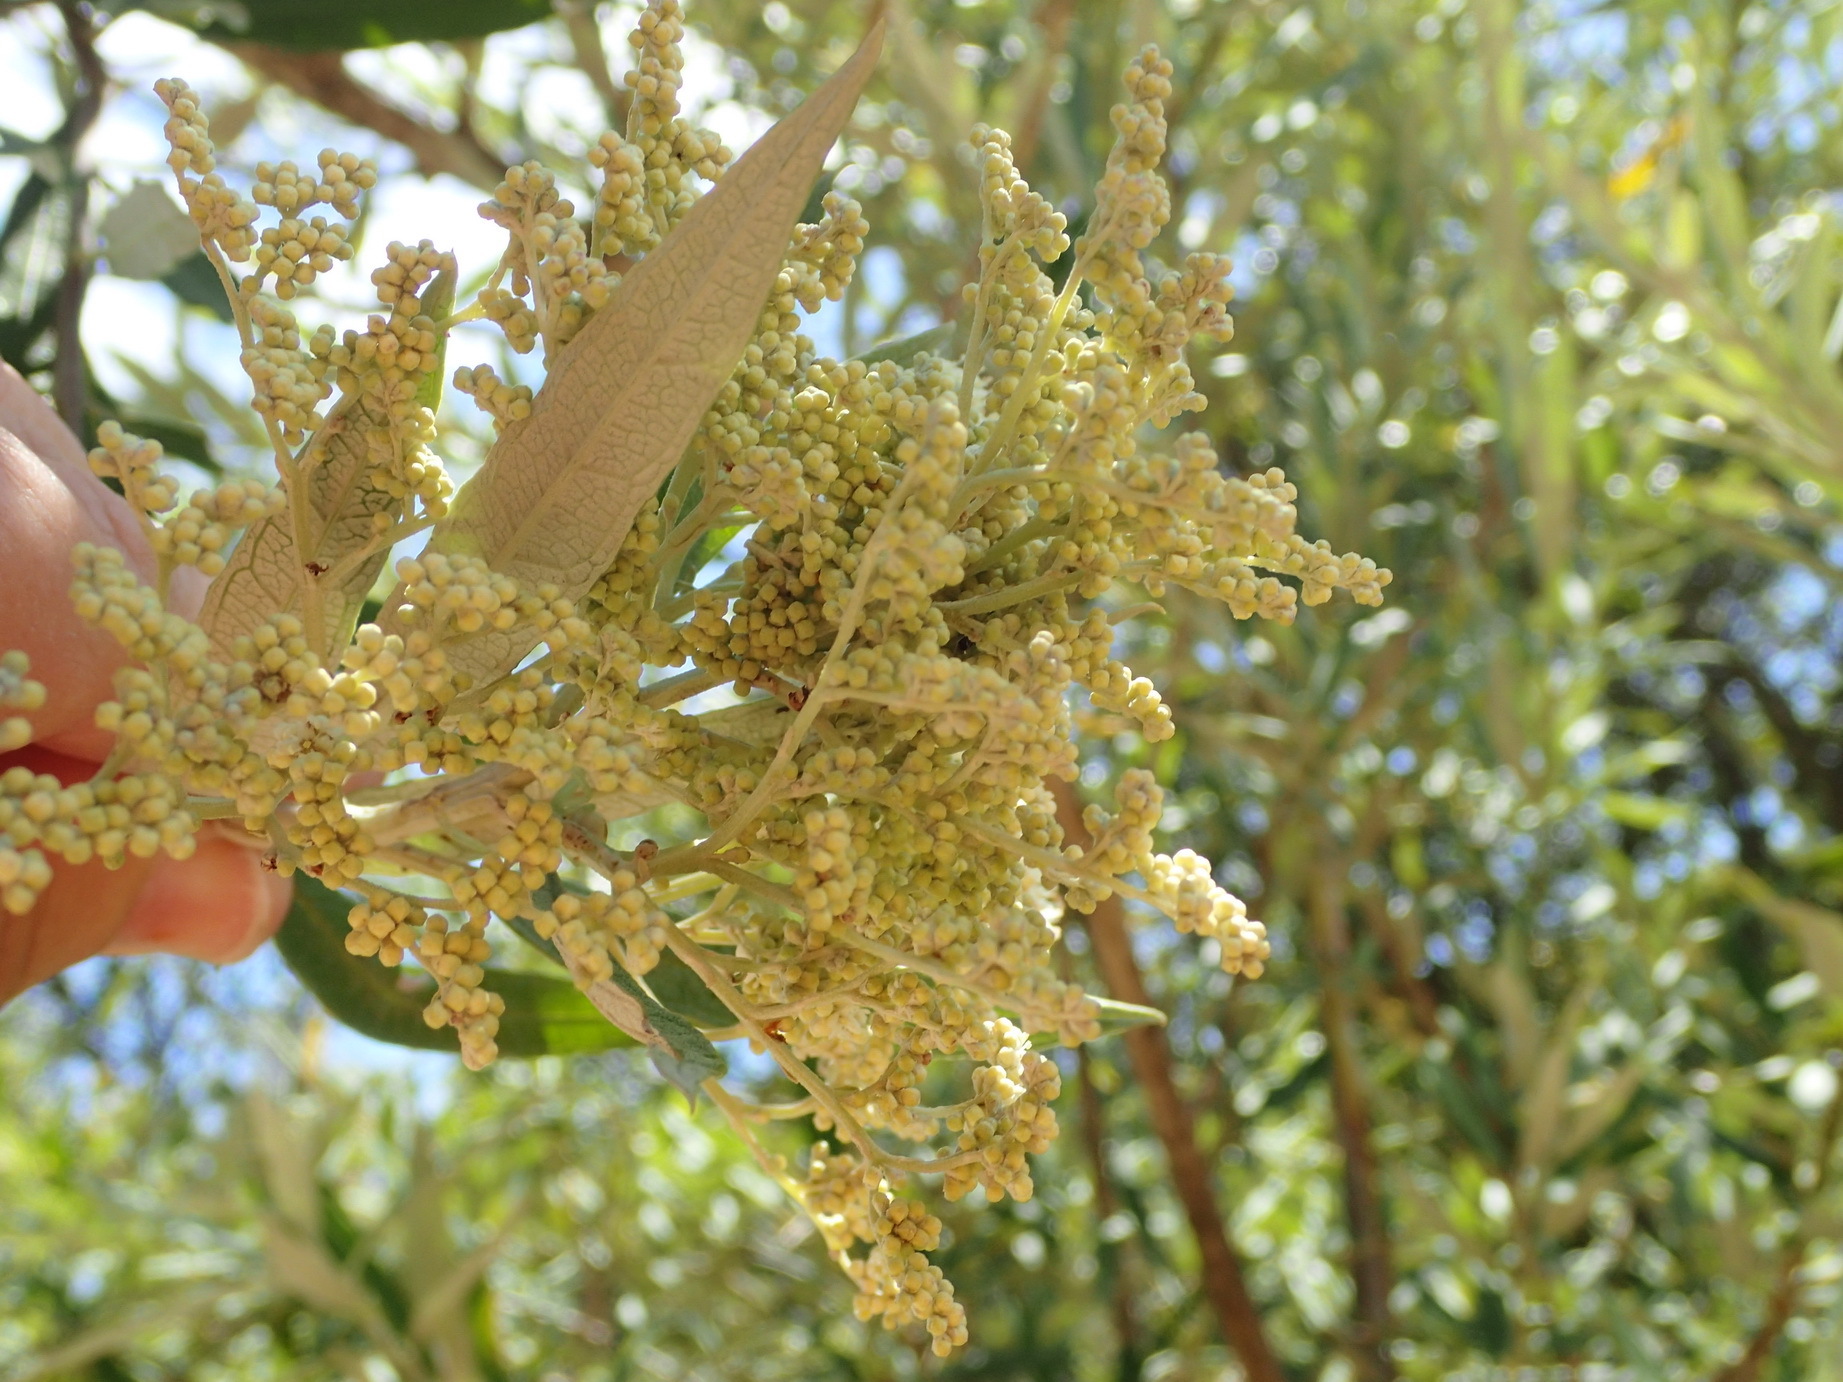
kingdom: Plantae
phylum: Tracheophyta
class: Magnoliopsida
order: Asterales
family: Asteraceae
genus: Brachylaena
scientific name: Brachylaena neriifolia
